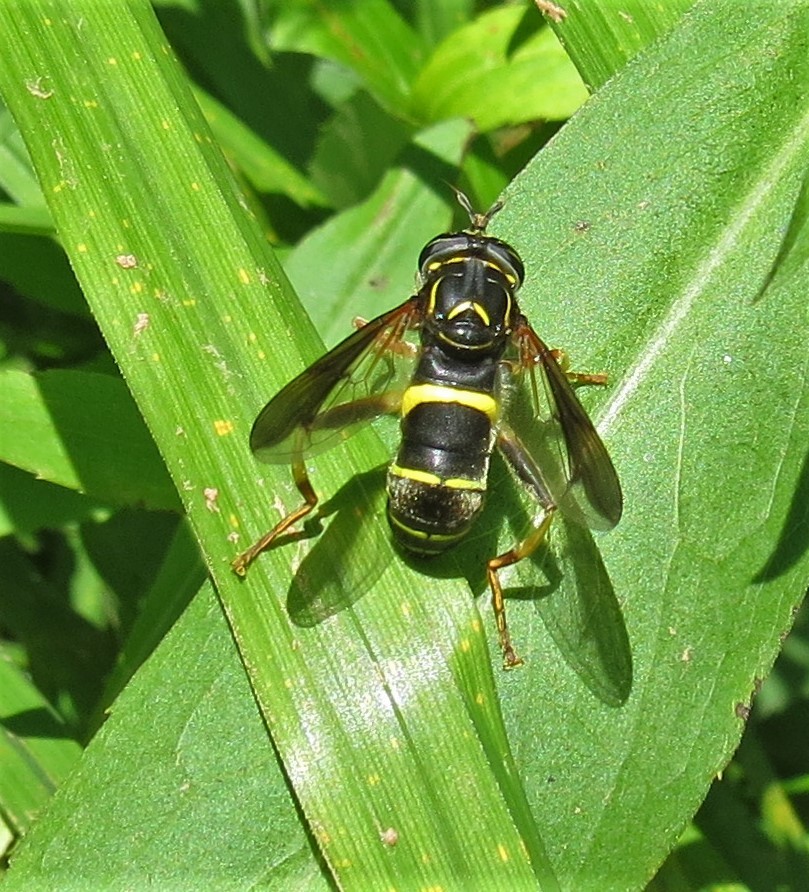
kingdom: Animalia
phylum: Arthropoda
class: Insecta
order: Diptera
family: Syrphidae
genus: Spilomyia
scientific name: Spilomyia sayi
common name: Four-lined hornet fly
